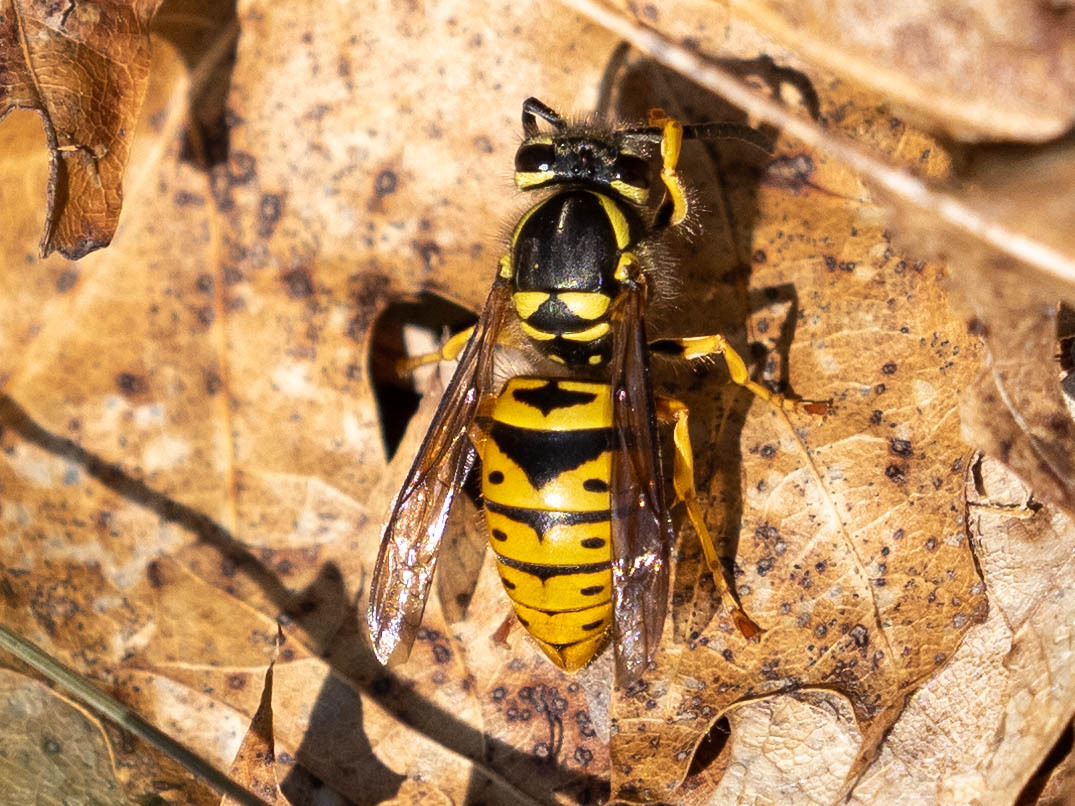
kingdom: Animalia
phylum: Arthropoda
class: Insecta
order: Hymenoptera
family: Vespidae
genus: Vespula
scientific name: Vespula maculifrons
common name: Eastern yellowjacket
